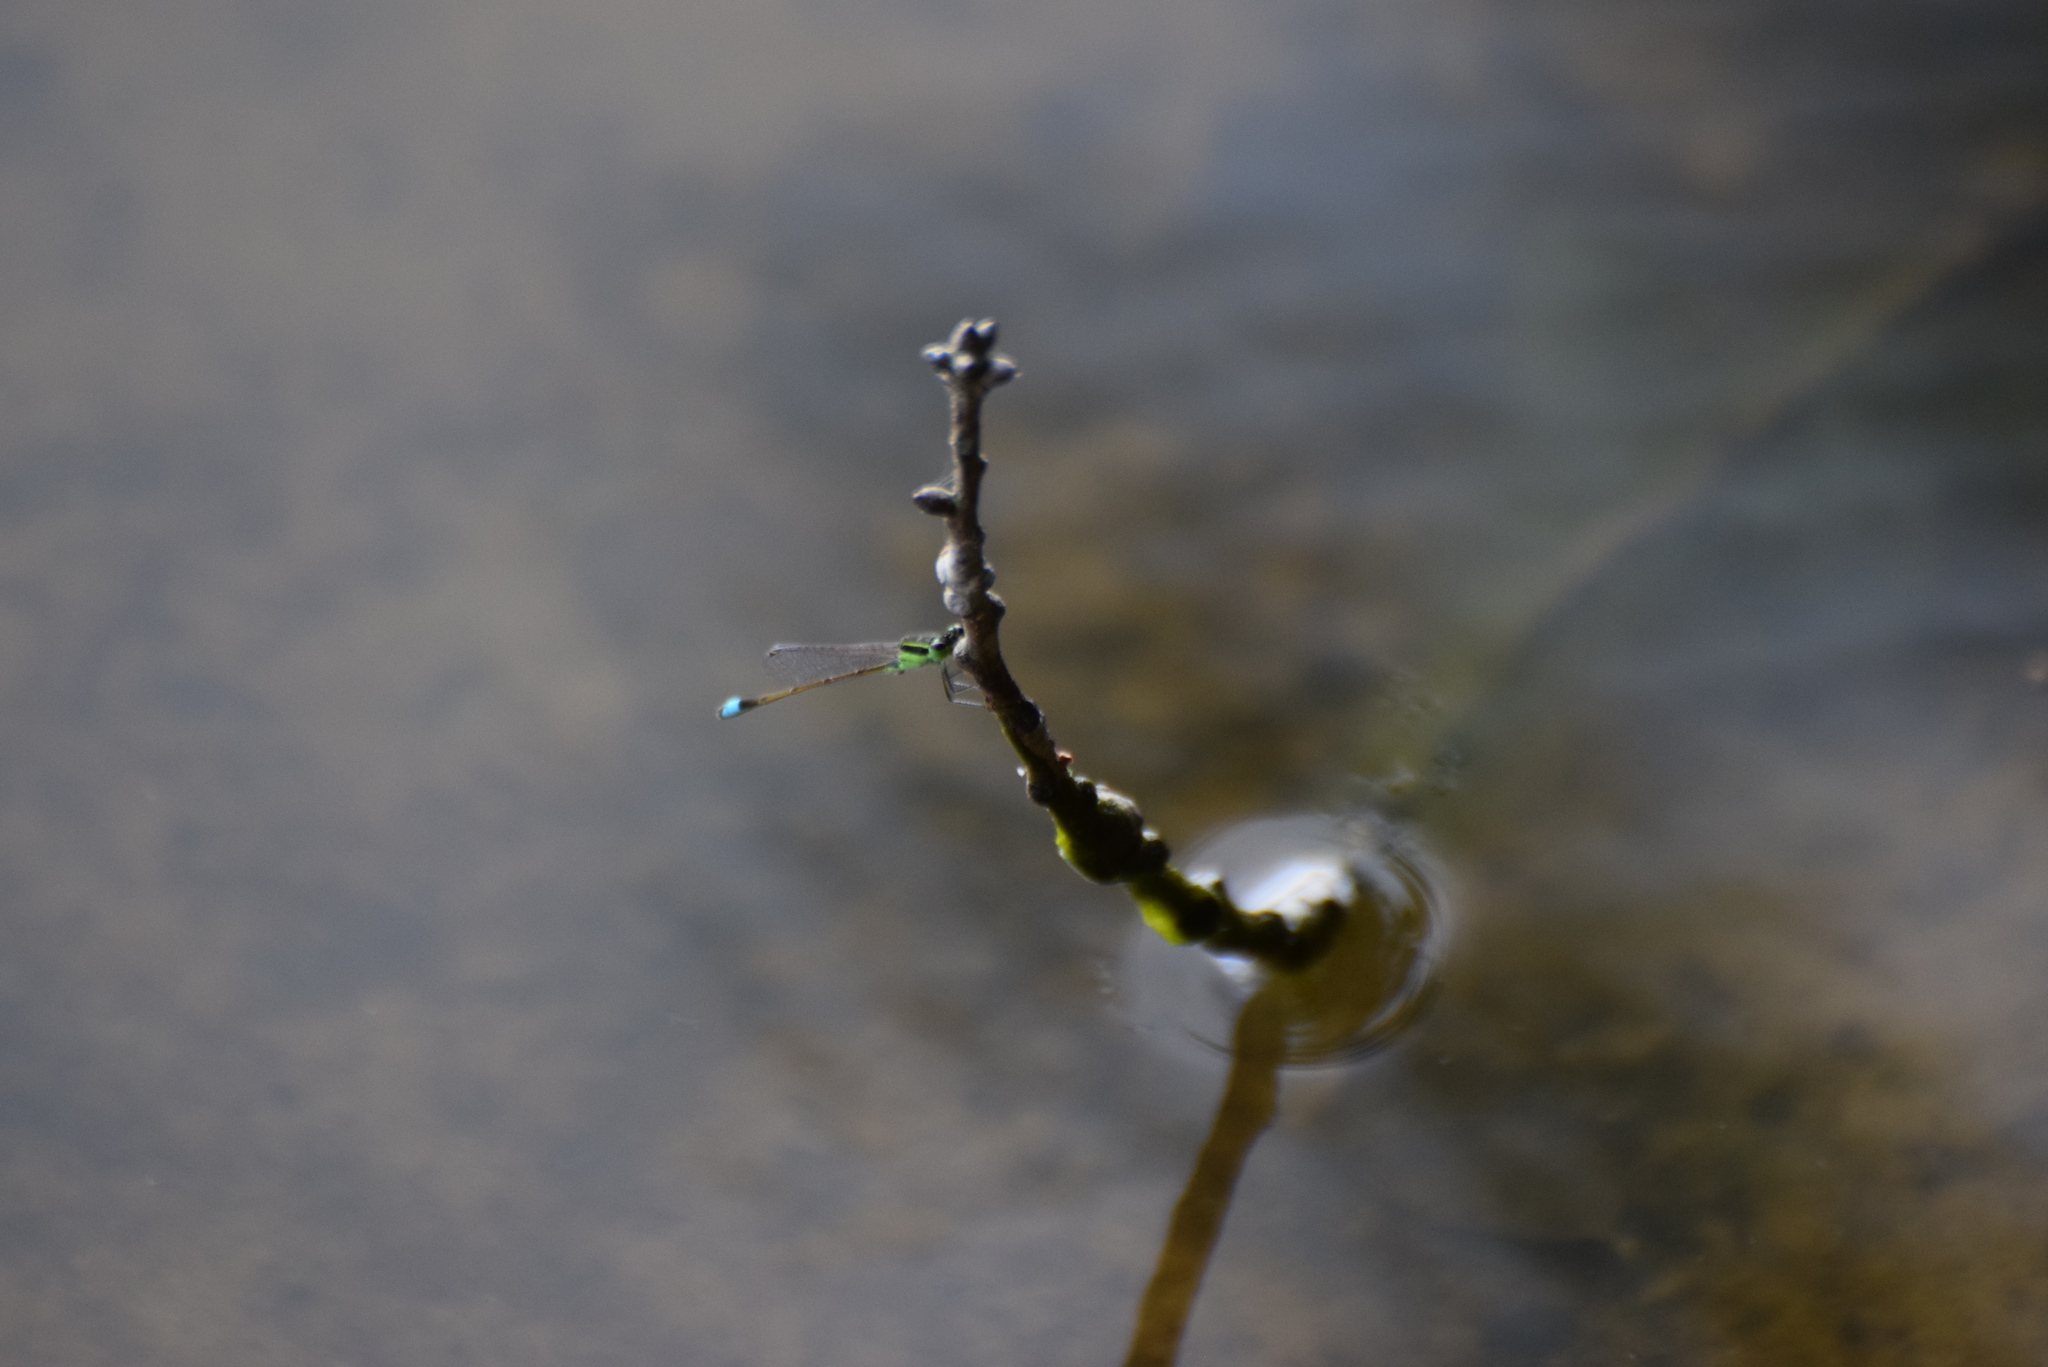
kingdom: Animalia
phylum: Arthropoda
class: Insecta
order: Odonata
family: Coenagrionidae
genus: Ischnura
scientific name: Ischnura ramburii
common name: Rambur's forktail
